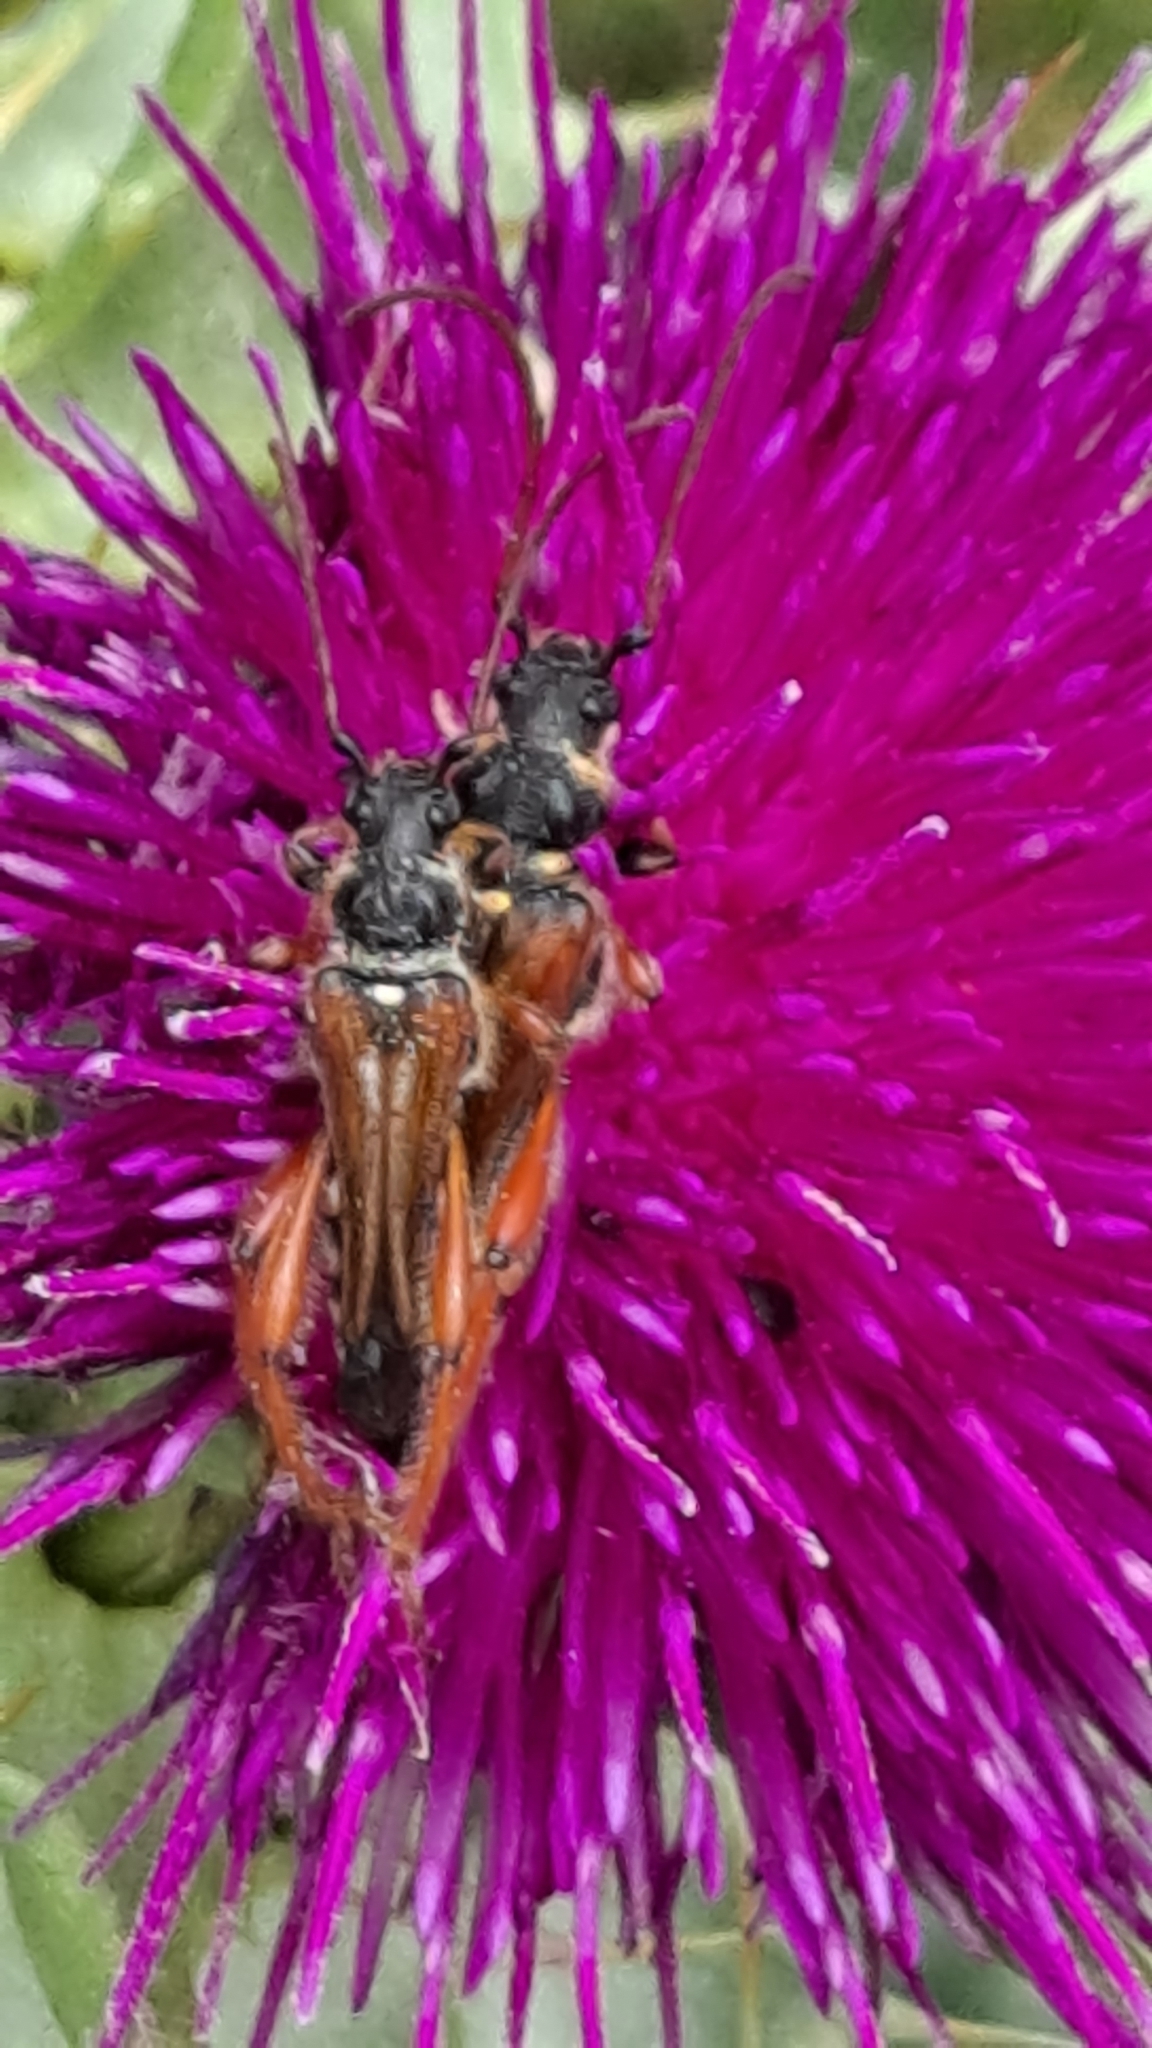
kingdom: Animalia
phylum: Arthropoda
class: Insecta
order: Coleoptera
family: Cerambycidae
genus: Stenopterus
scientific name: Stenopterus rufus
